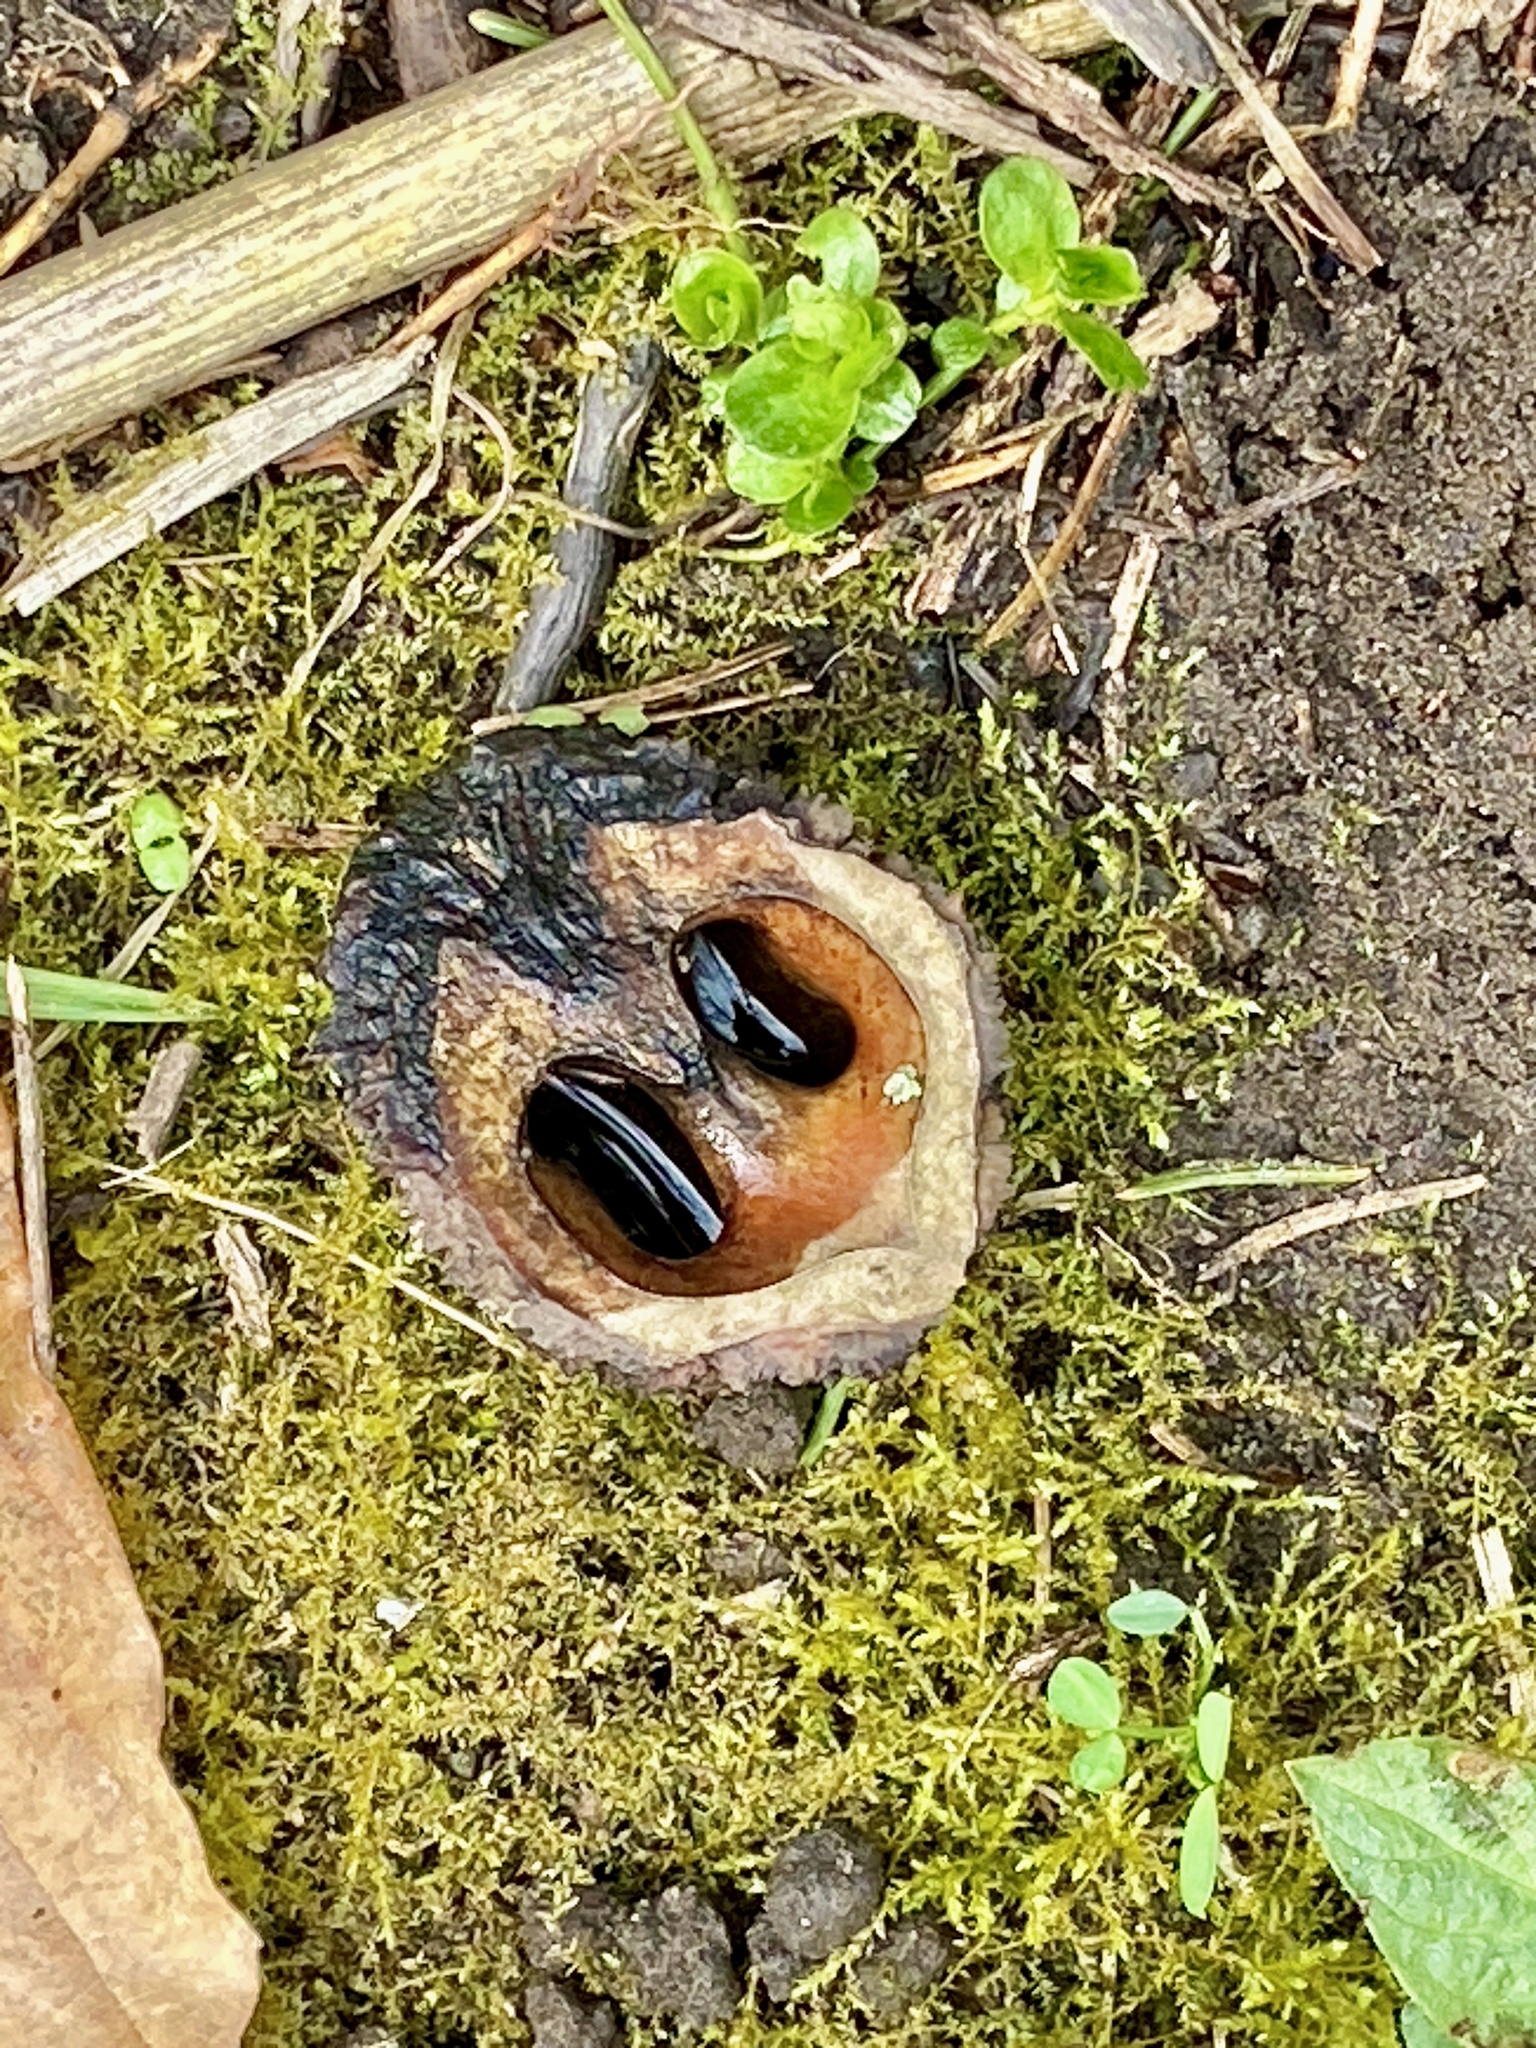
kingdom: Plantae
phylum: Tracheophyta
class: Magnoliopsida
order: Fagales
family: Juglandaceae
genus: Juglans
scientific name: Juglans nigra
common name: Black walnut
